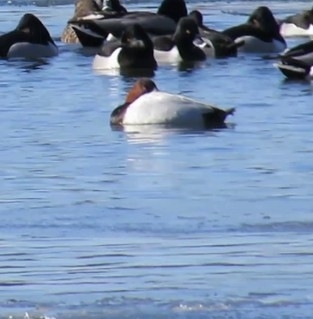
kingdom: Animalia
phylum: Chordata
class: Aves
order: Anseriformes
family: Anatidae
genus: Aythya
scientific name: Aythya valisineria
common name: Canvasback
